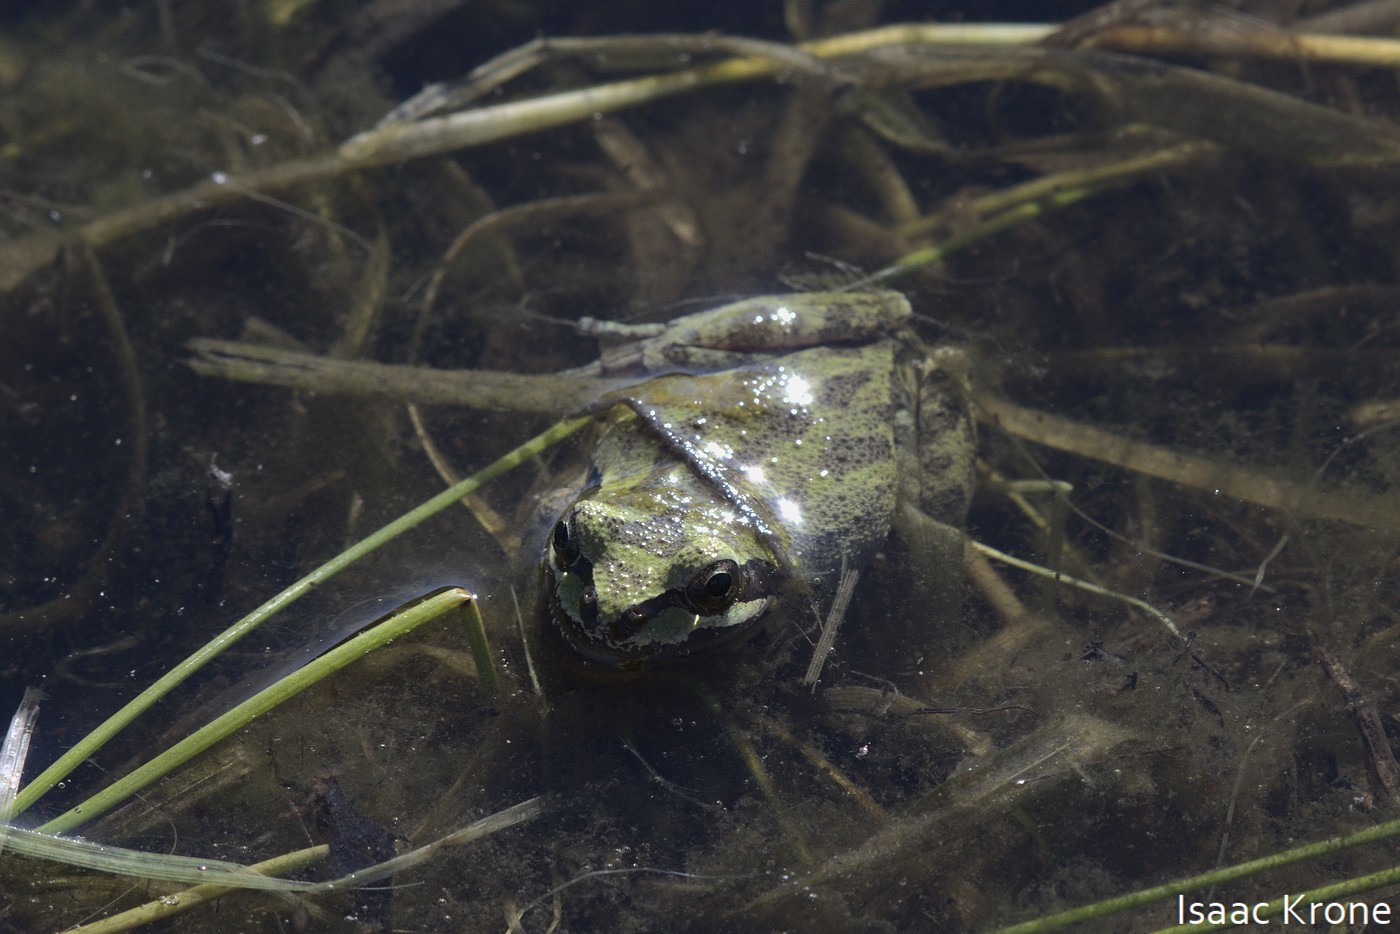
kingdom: Animalia
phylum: Chordata
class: Amphibia
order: Anura
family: Hylidae
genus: Pseudacris
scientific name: Pseudacris regilla
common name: Pacific chorus frog
